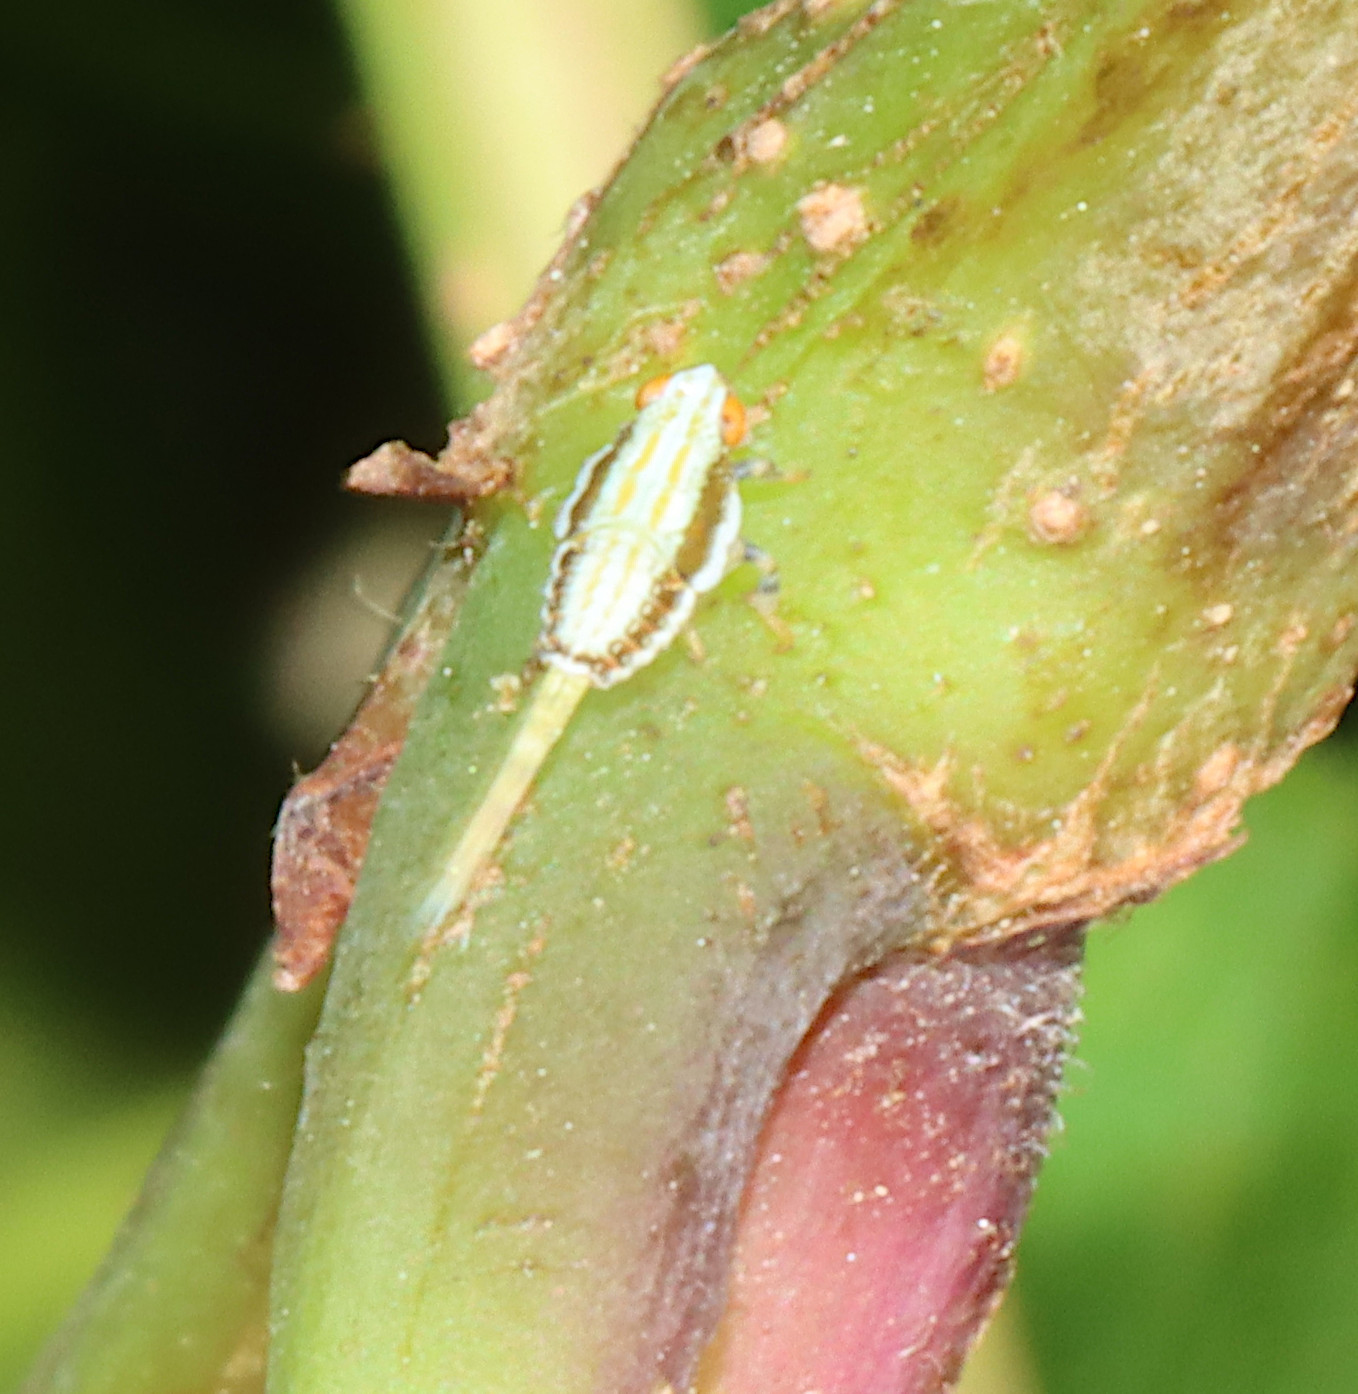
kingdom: Animalia
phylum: Arthropoda
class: Insecta
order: Hemiptera
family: Issidae
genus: Thionia
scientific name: Thionia bullata
